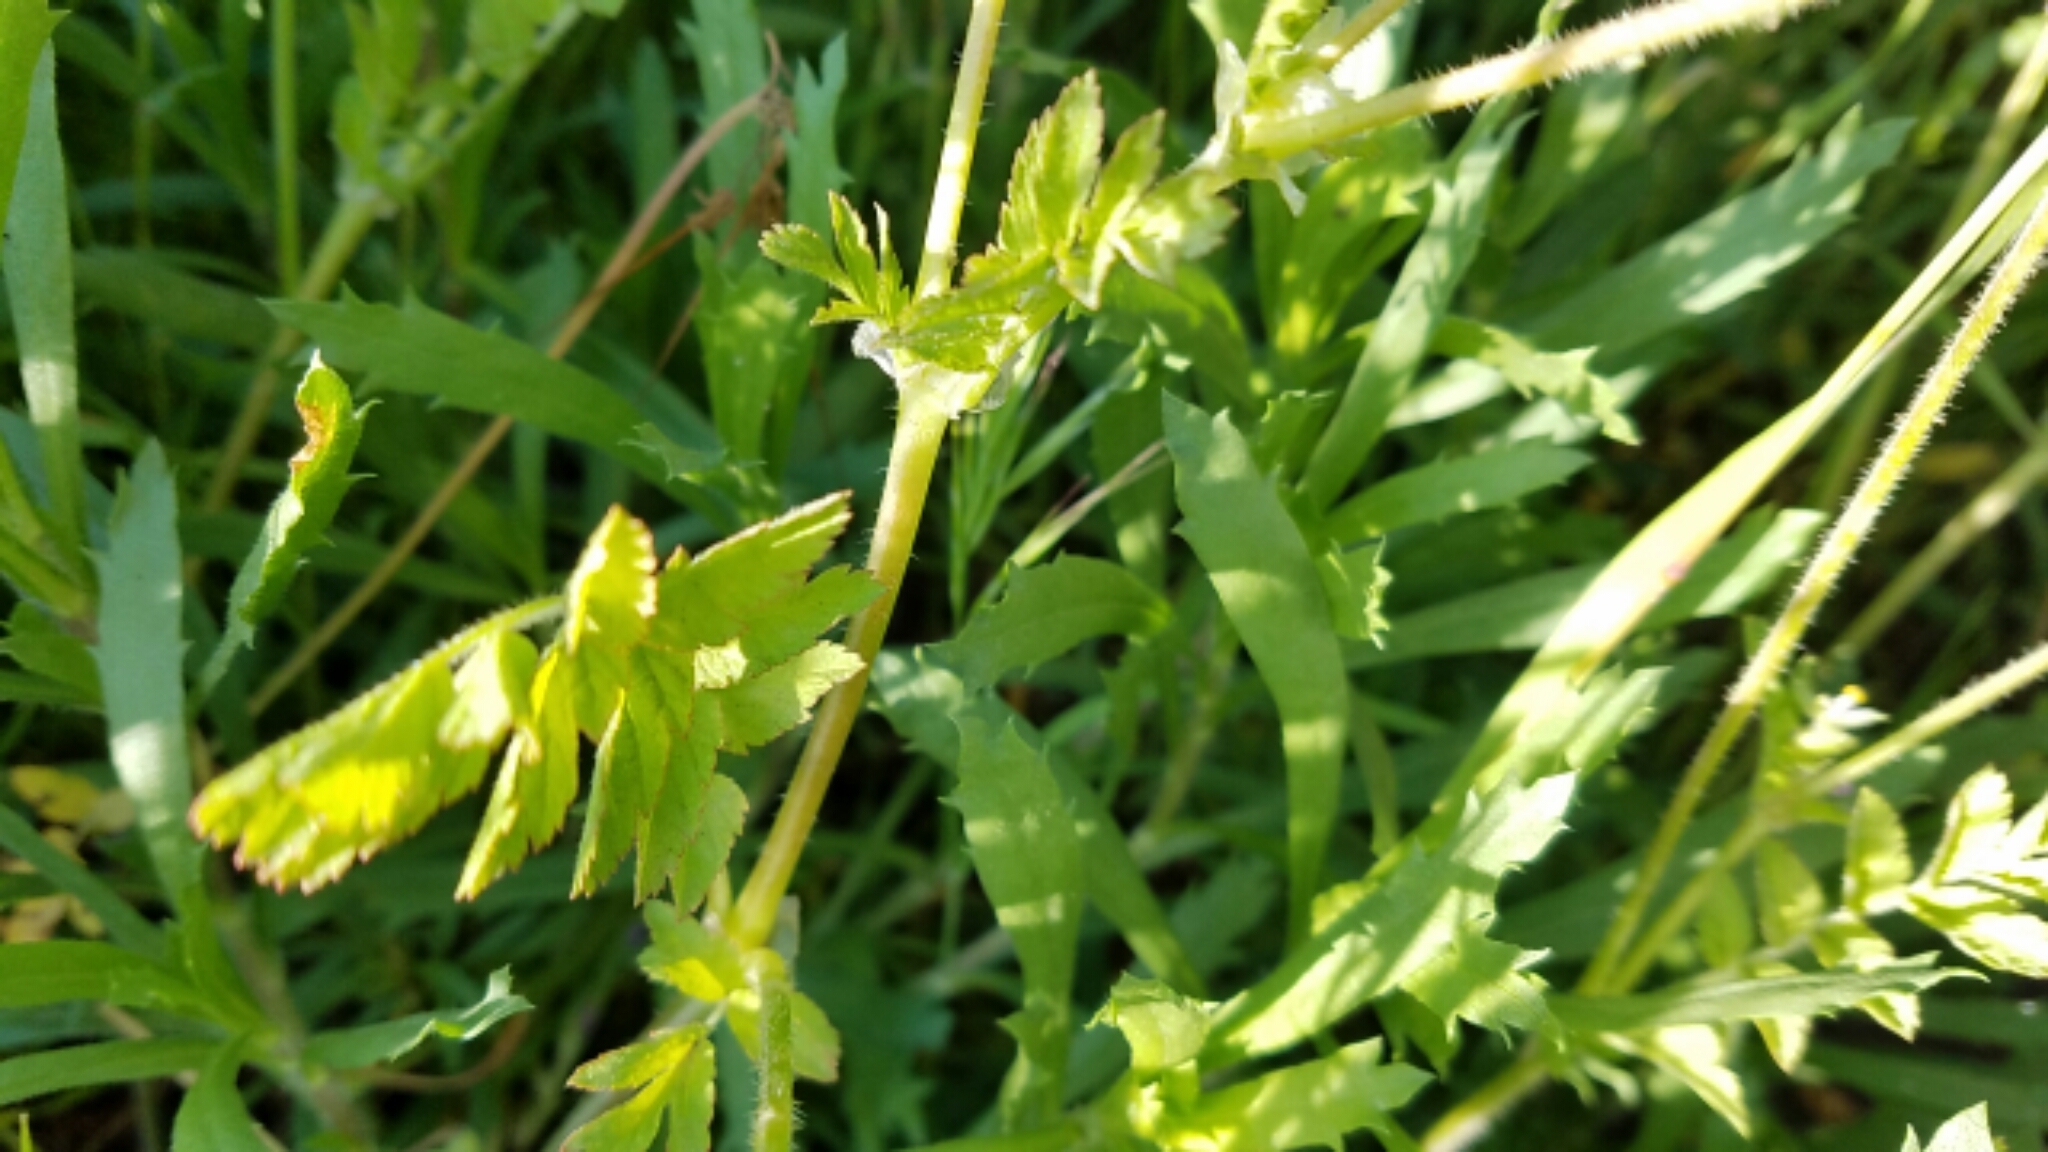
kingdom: Plantae
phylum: Tracheophyta
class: Magnoliopsida
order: Geraniales
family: Geraniaceae
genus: Erodium
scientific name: Erodium moschatum
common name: Musk stork's-bill
